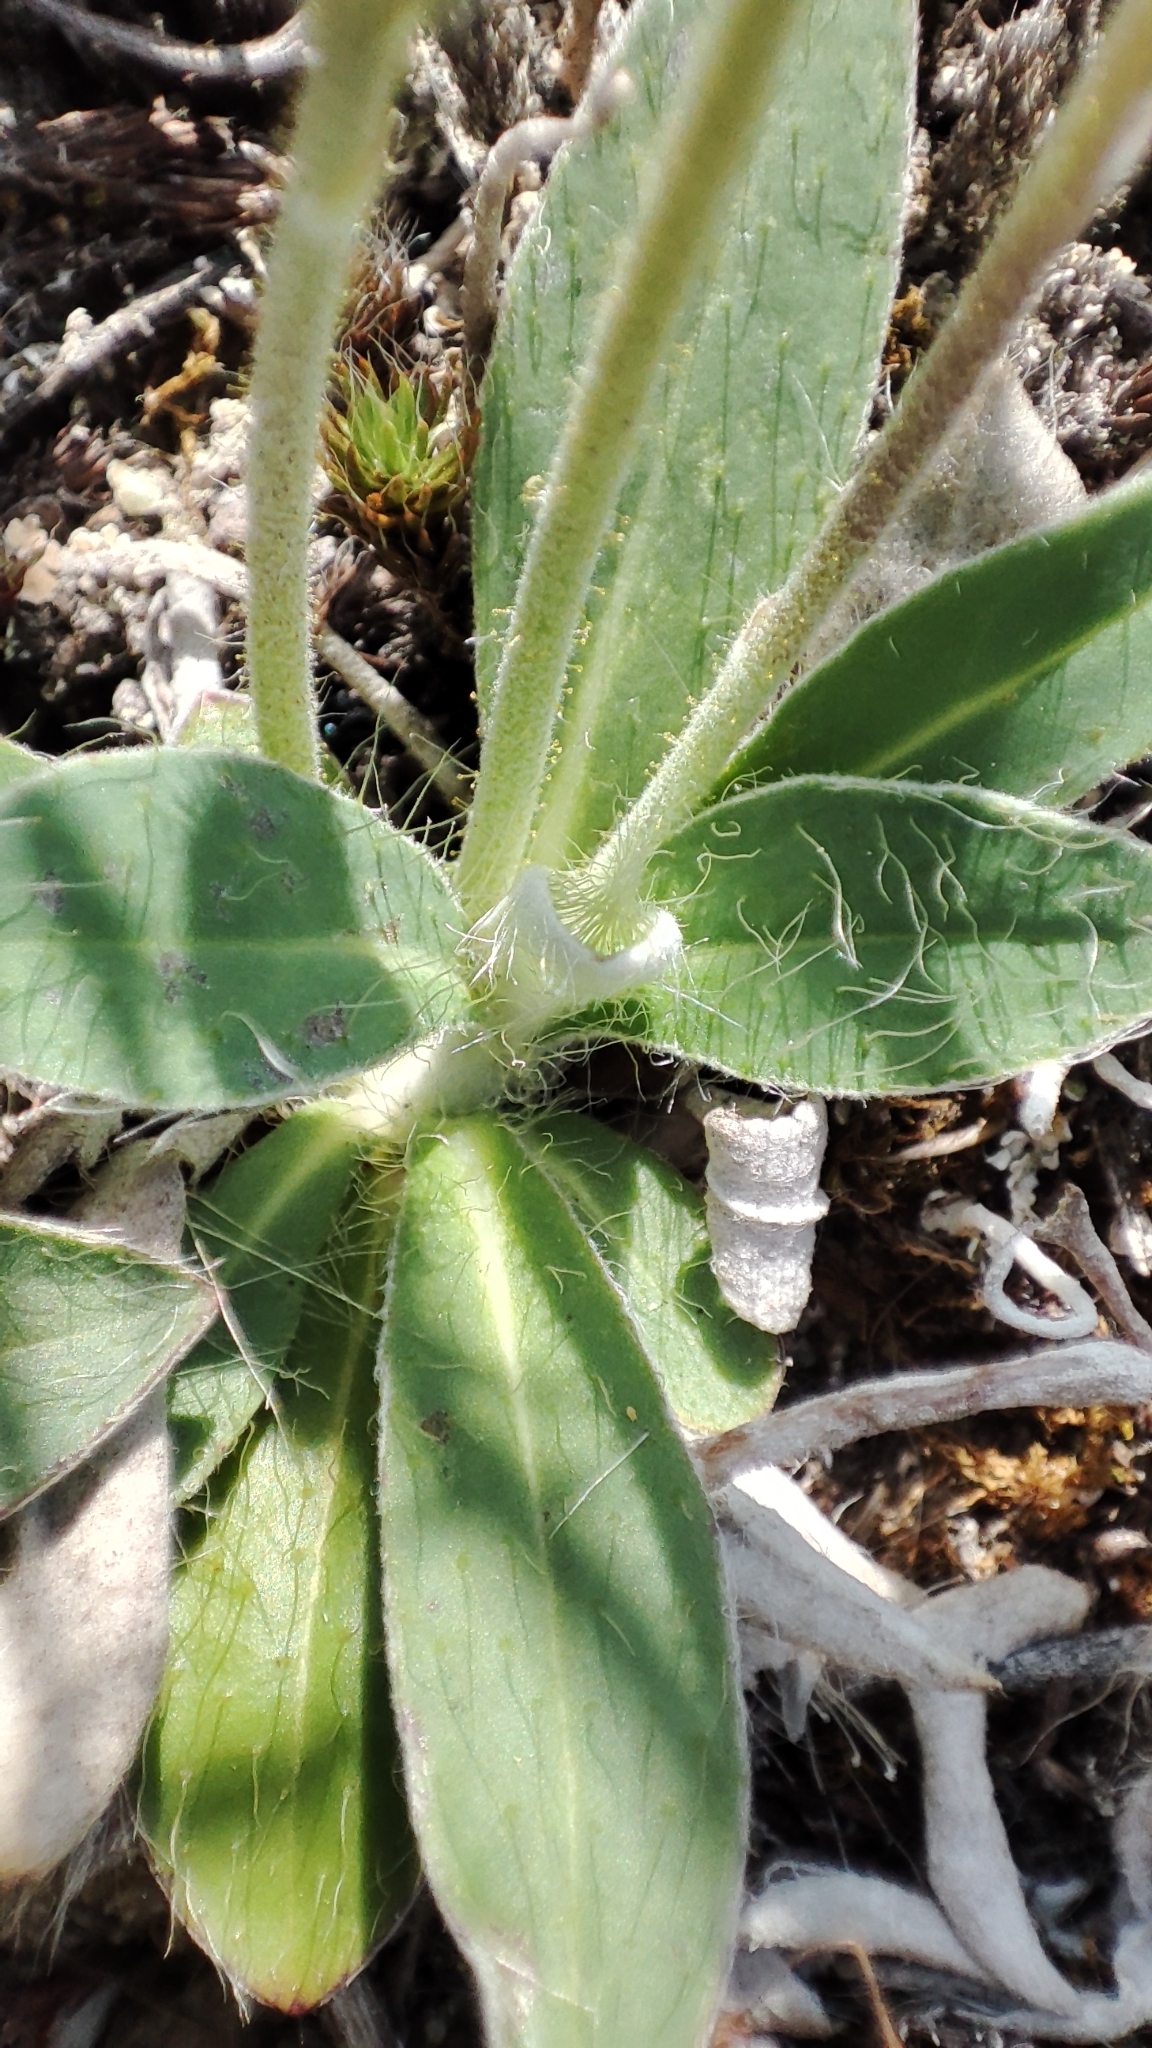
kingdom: Plantae
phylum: Tracheophyta
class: Magnoliopsida
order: Asterales
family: Asteraceae
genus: Pilosella
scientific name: Pilosella officinarum
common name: Mouse-ear hawkweed
